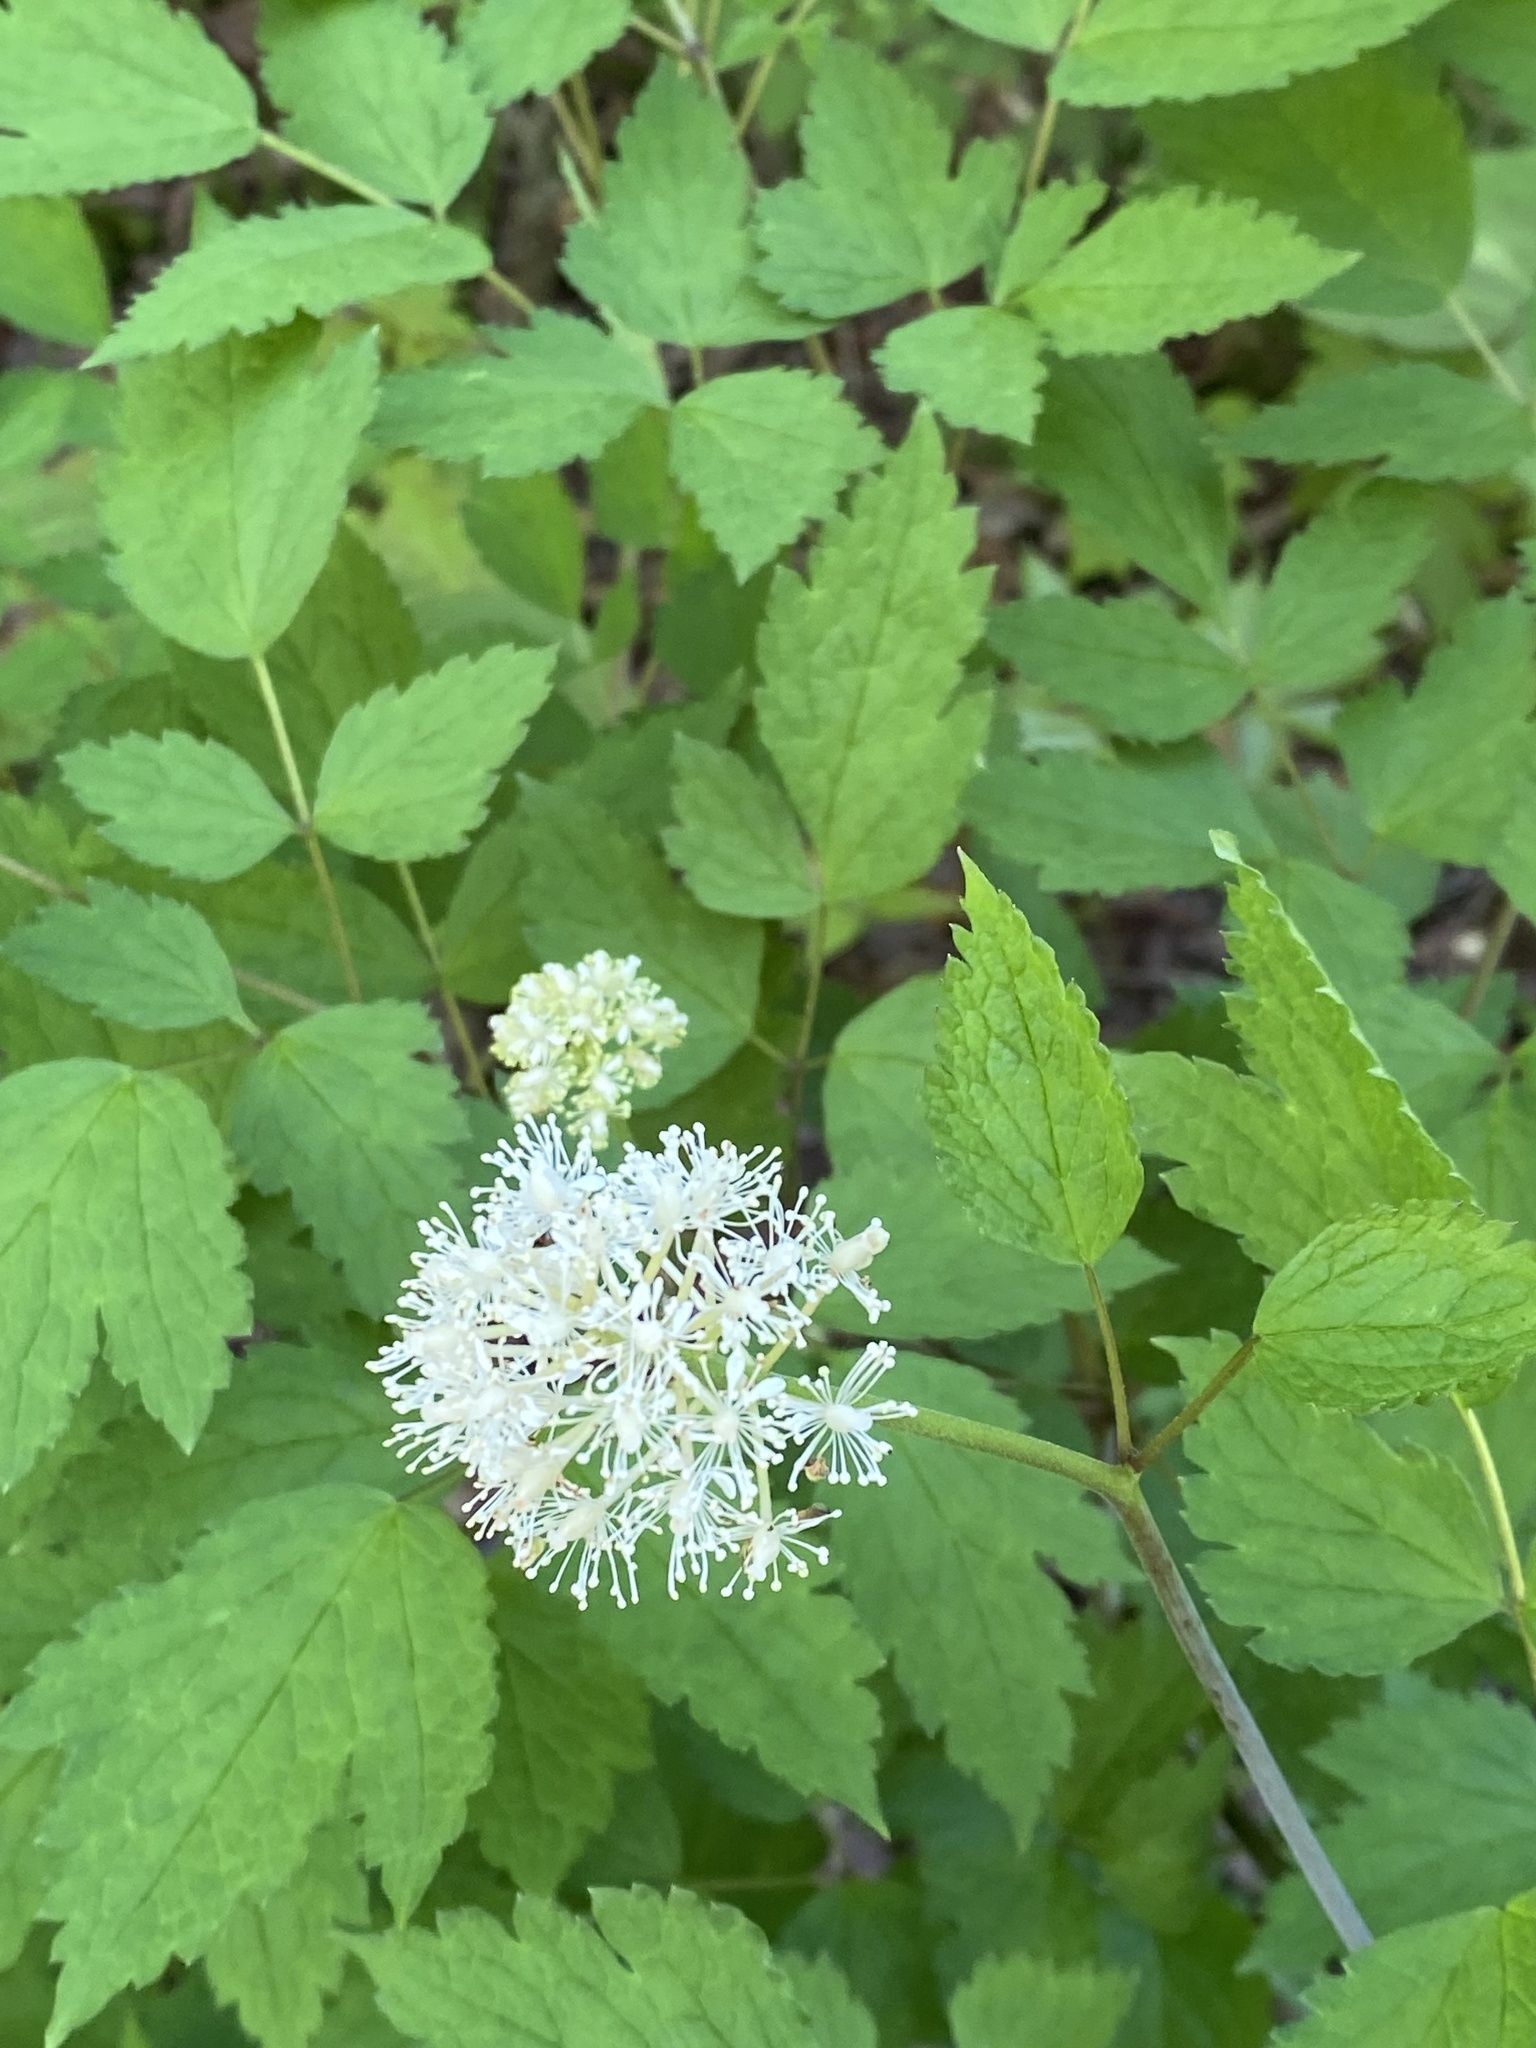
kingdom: Plantae
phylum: Tracheophyta
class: Magnoliopsida
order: Ranunculales
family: Ranunculaceae
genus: Actaea
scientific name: Actaea rubra
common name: Red baneberry
